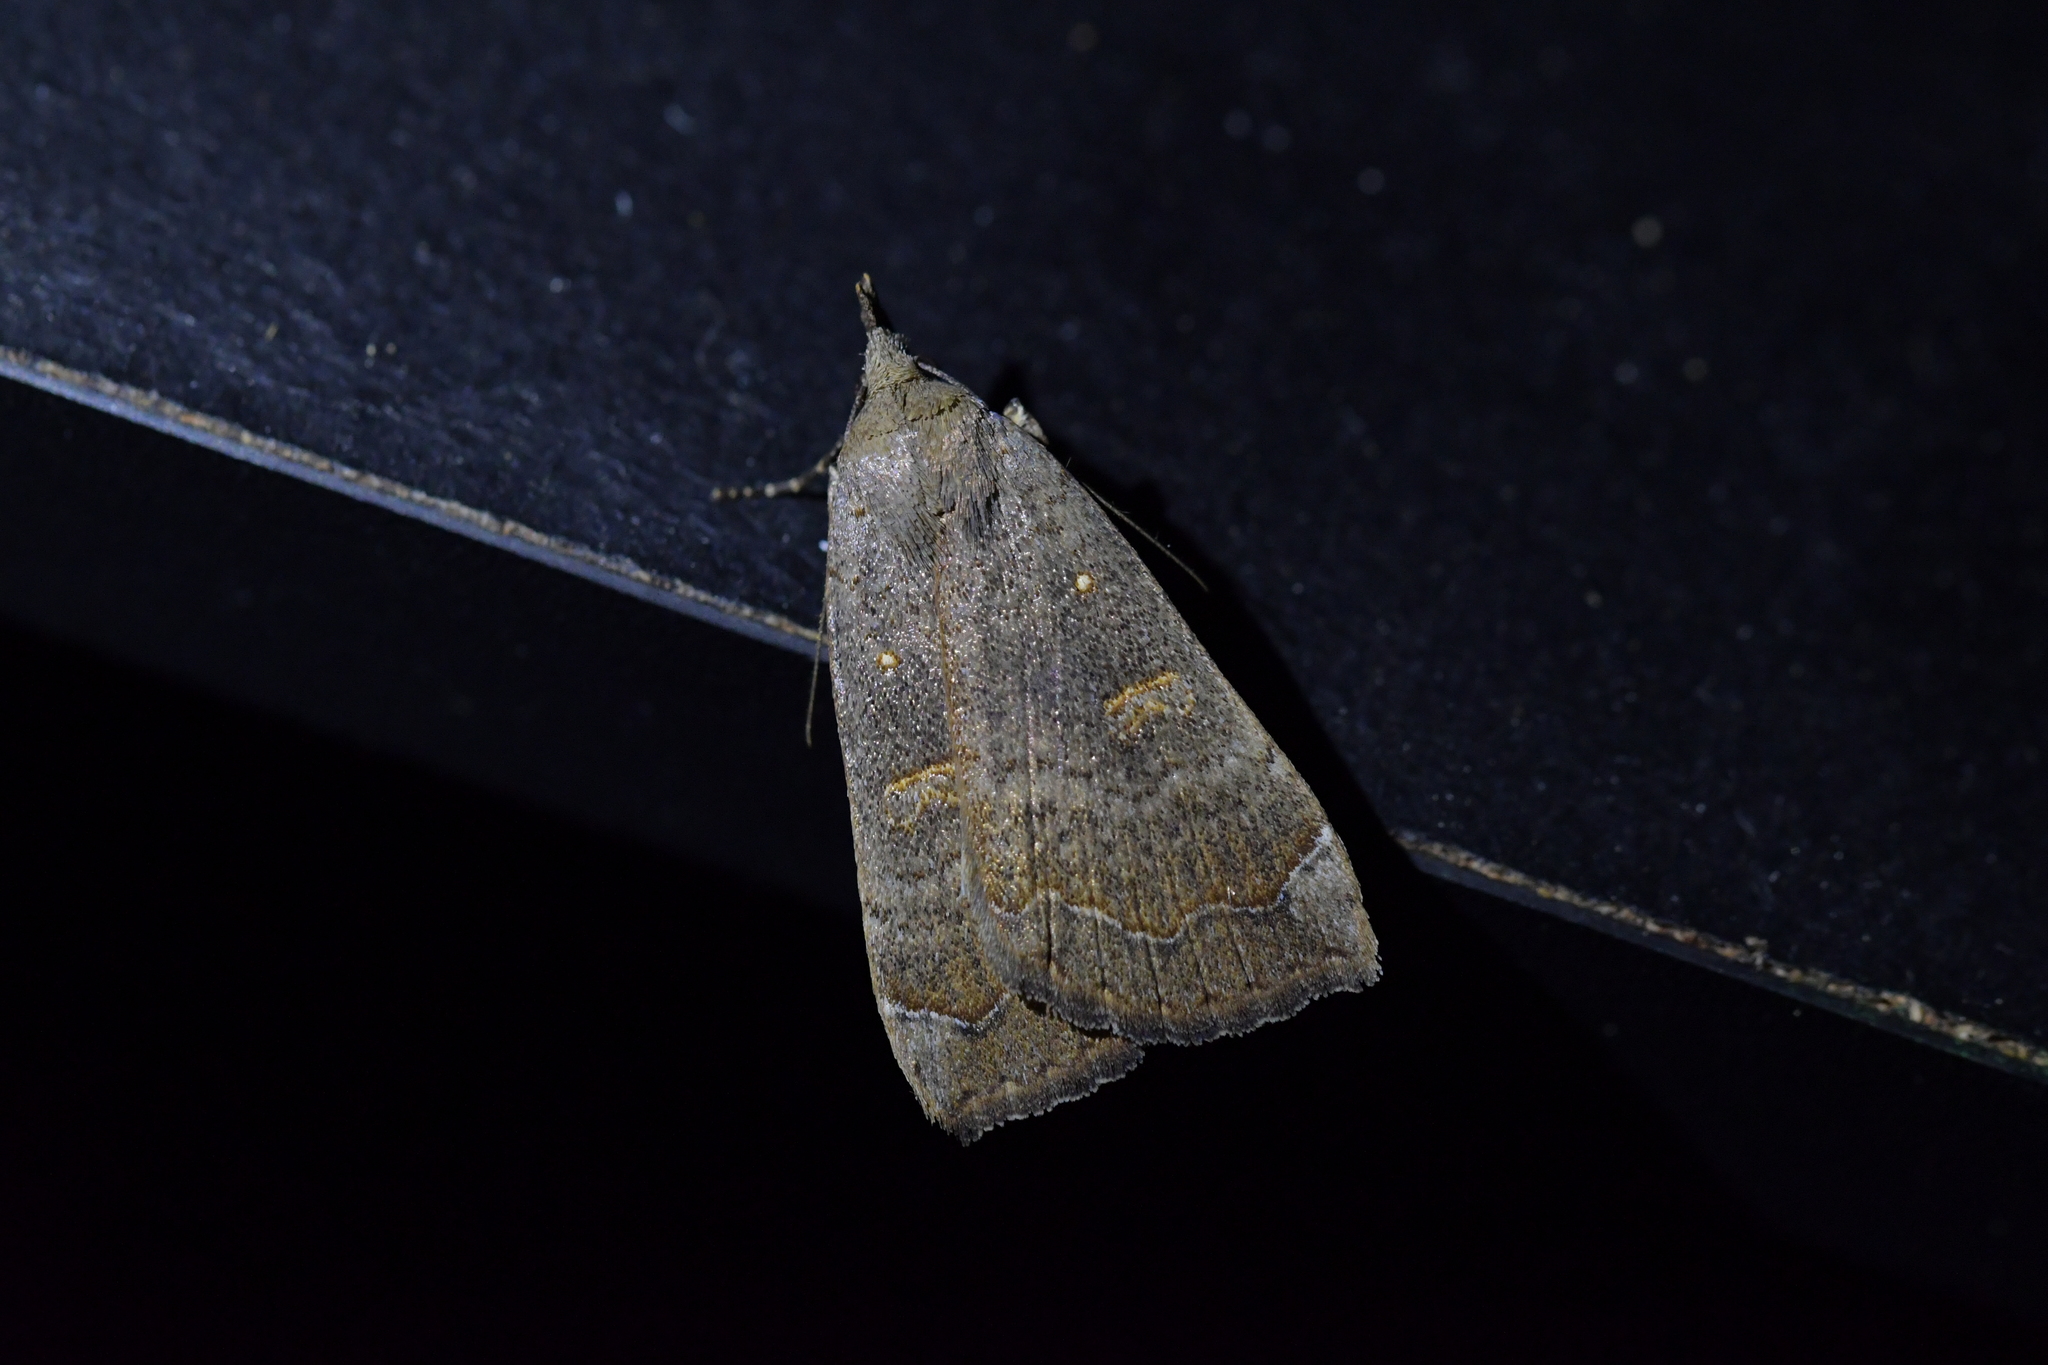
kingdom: Animalia
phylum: Arthropoda
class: Insecta
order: Lepidoptera
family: Erebidae
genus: Rhapsa
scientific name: Rhapsa scotosialis
